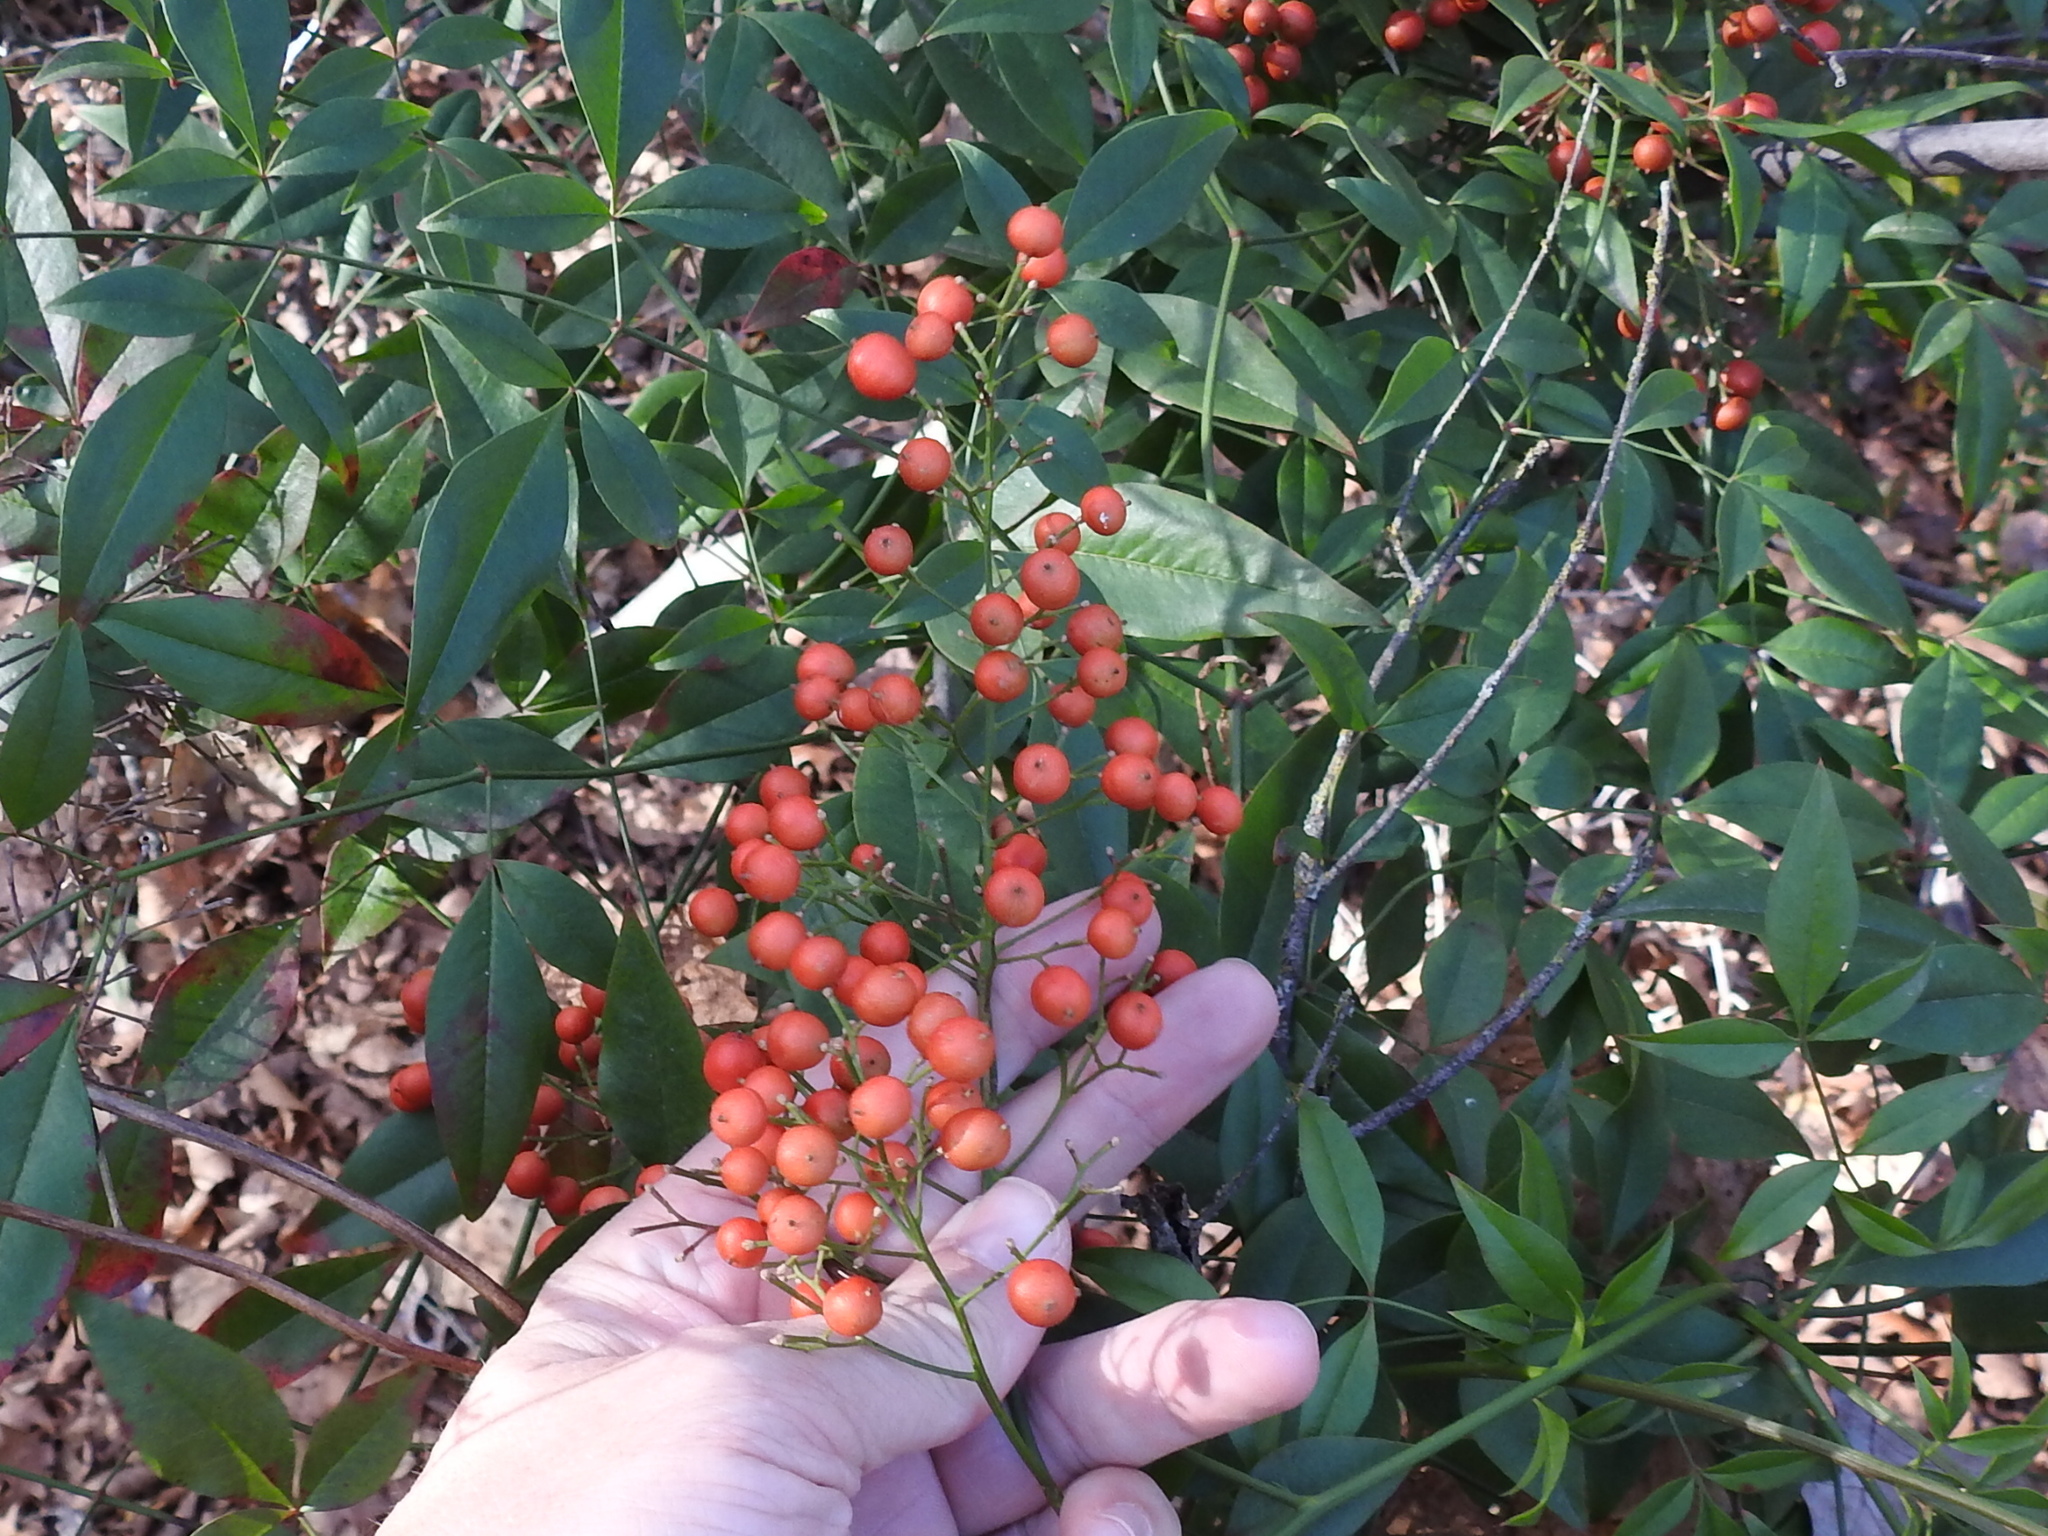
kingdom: Plantae
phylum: Tracheophyta
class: Magnoliopsida
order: Ranunculales
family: Berberidaceae
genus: Nandina
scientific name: Nandina domestica
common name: Sacred bamboo
